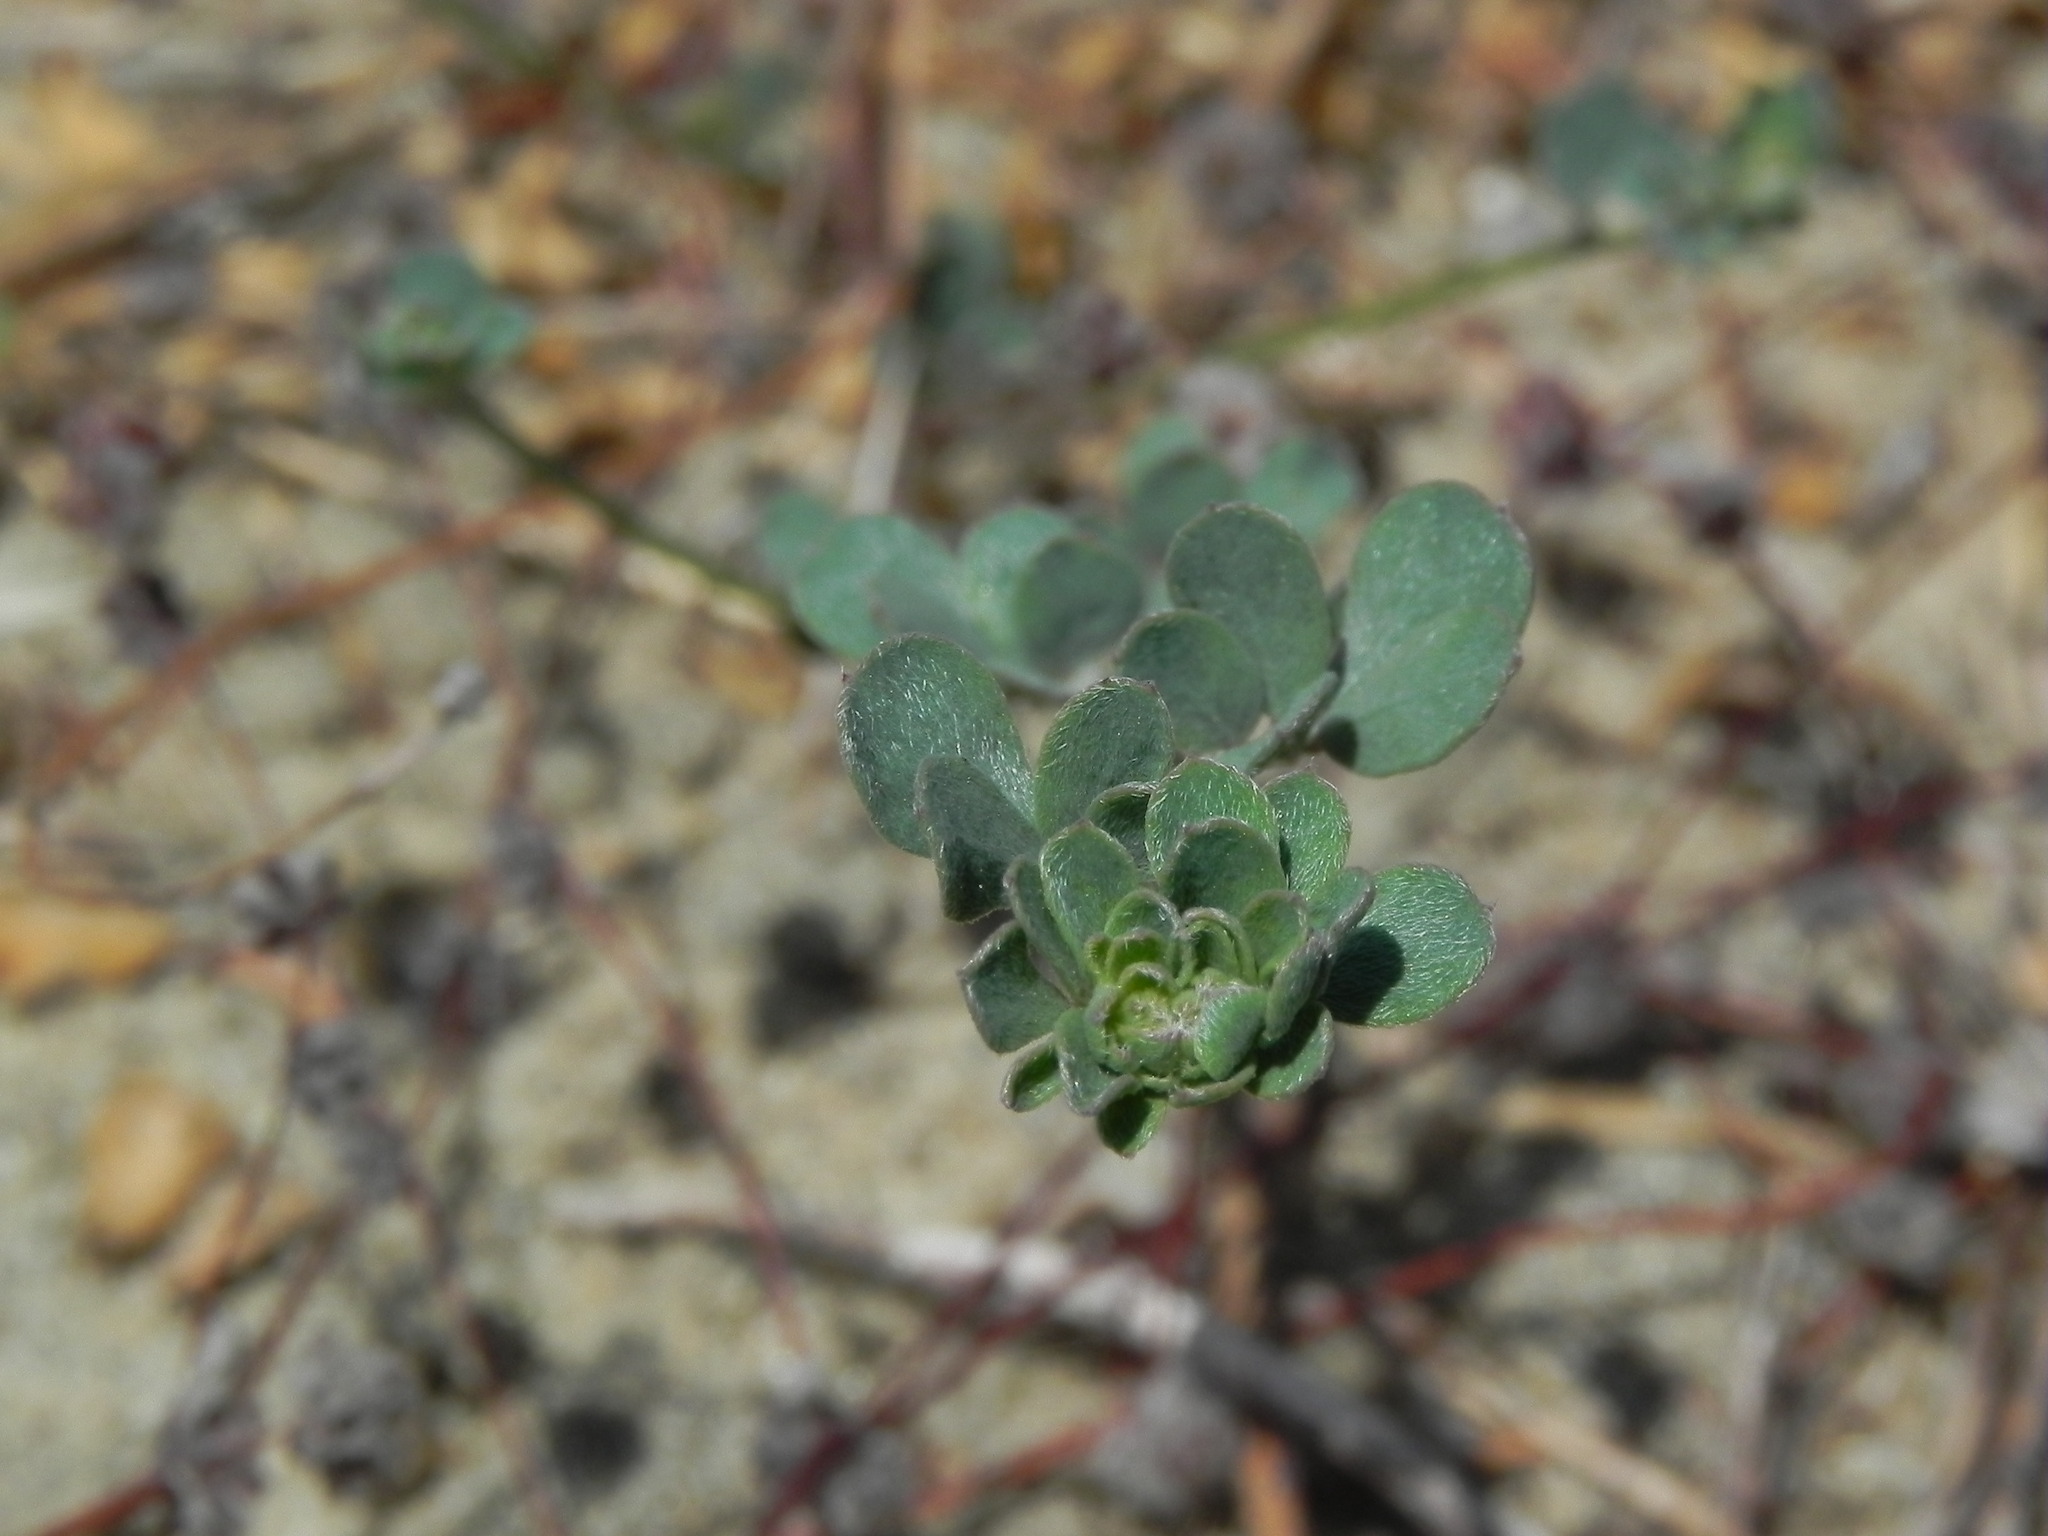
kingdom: Plantae
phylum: Tracheophyta
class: Magnoliopsida
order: Fabales
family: Fabaceae
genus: Acmispon
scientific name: Acmispon prostratus
